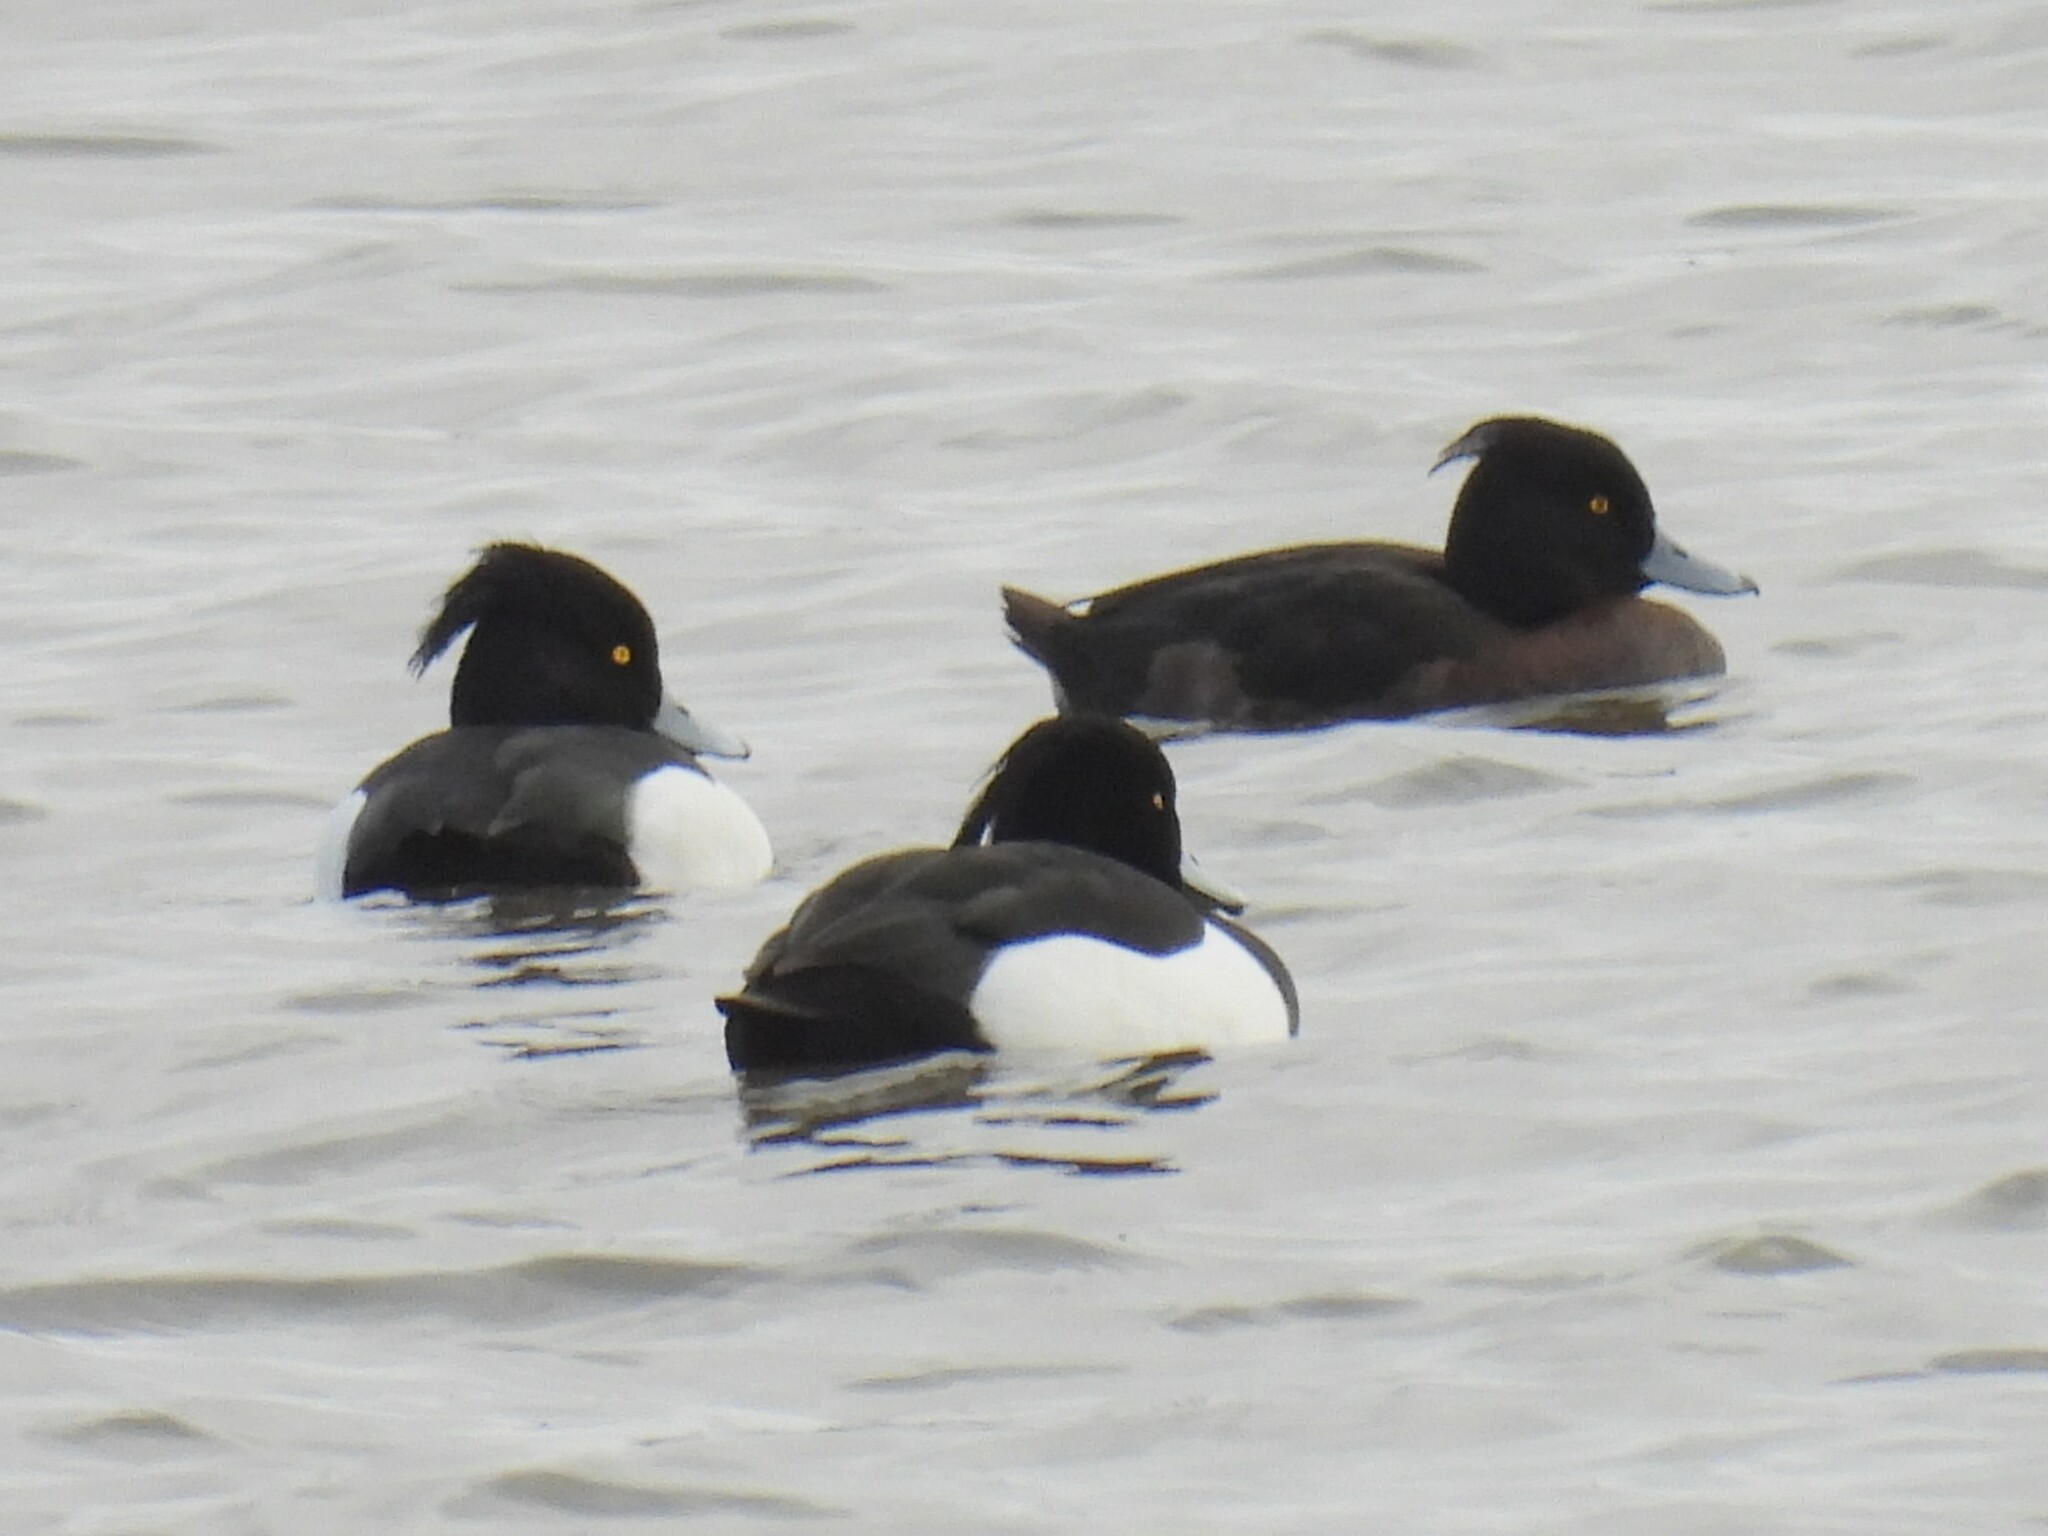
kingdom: Animalia
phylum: Chordata
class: Aves
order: Anseriformes
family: Anatidae
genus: Aythya
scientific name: Aythya fuligula
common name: Tufted duck
